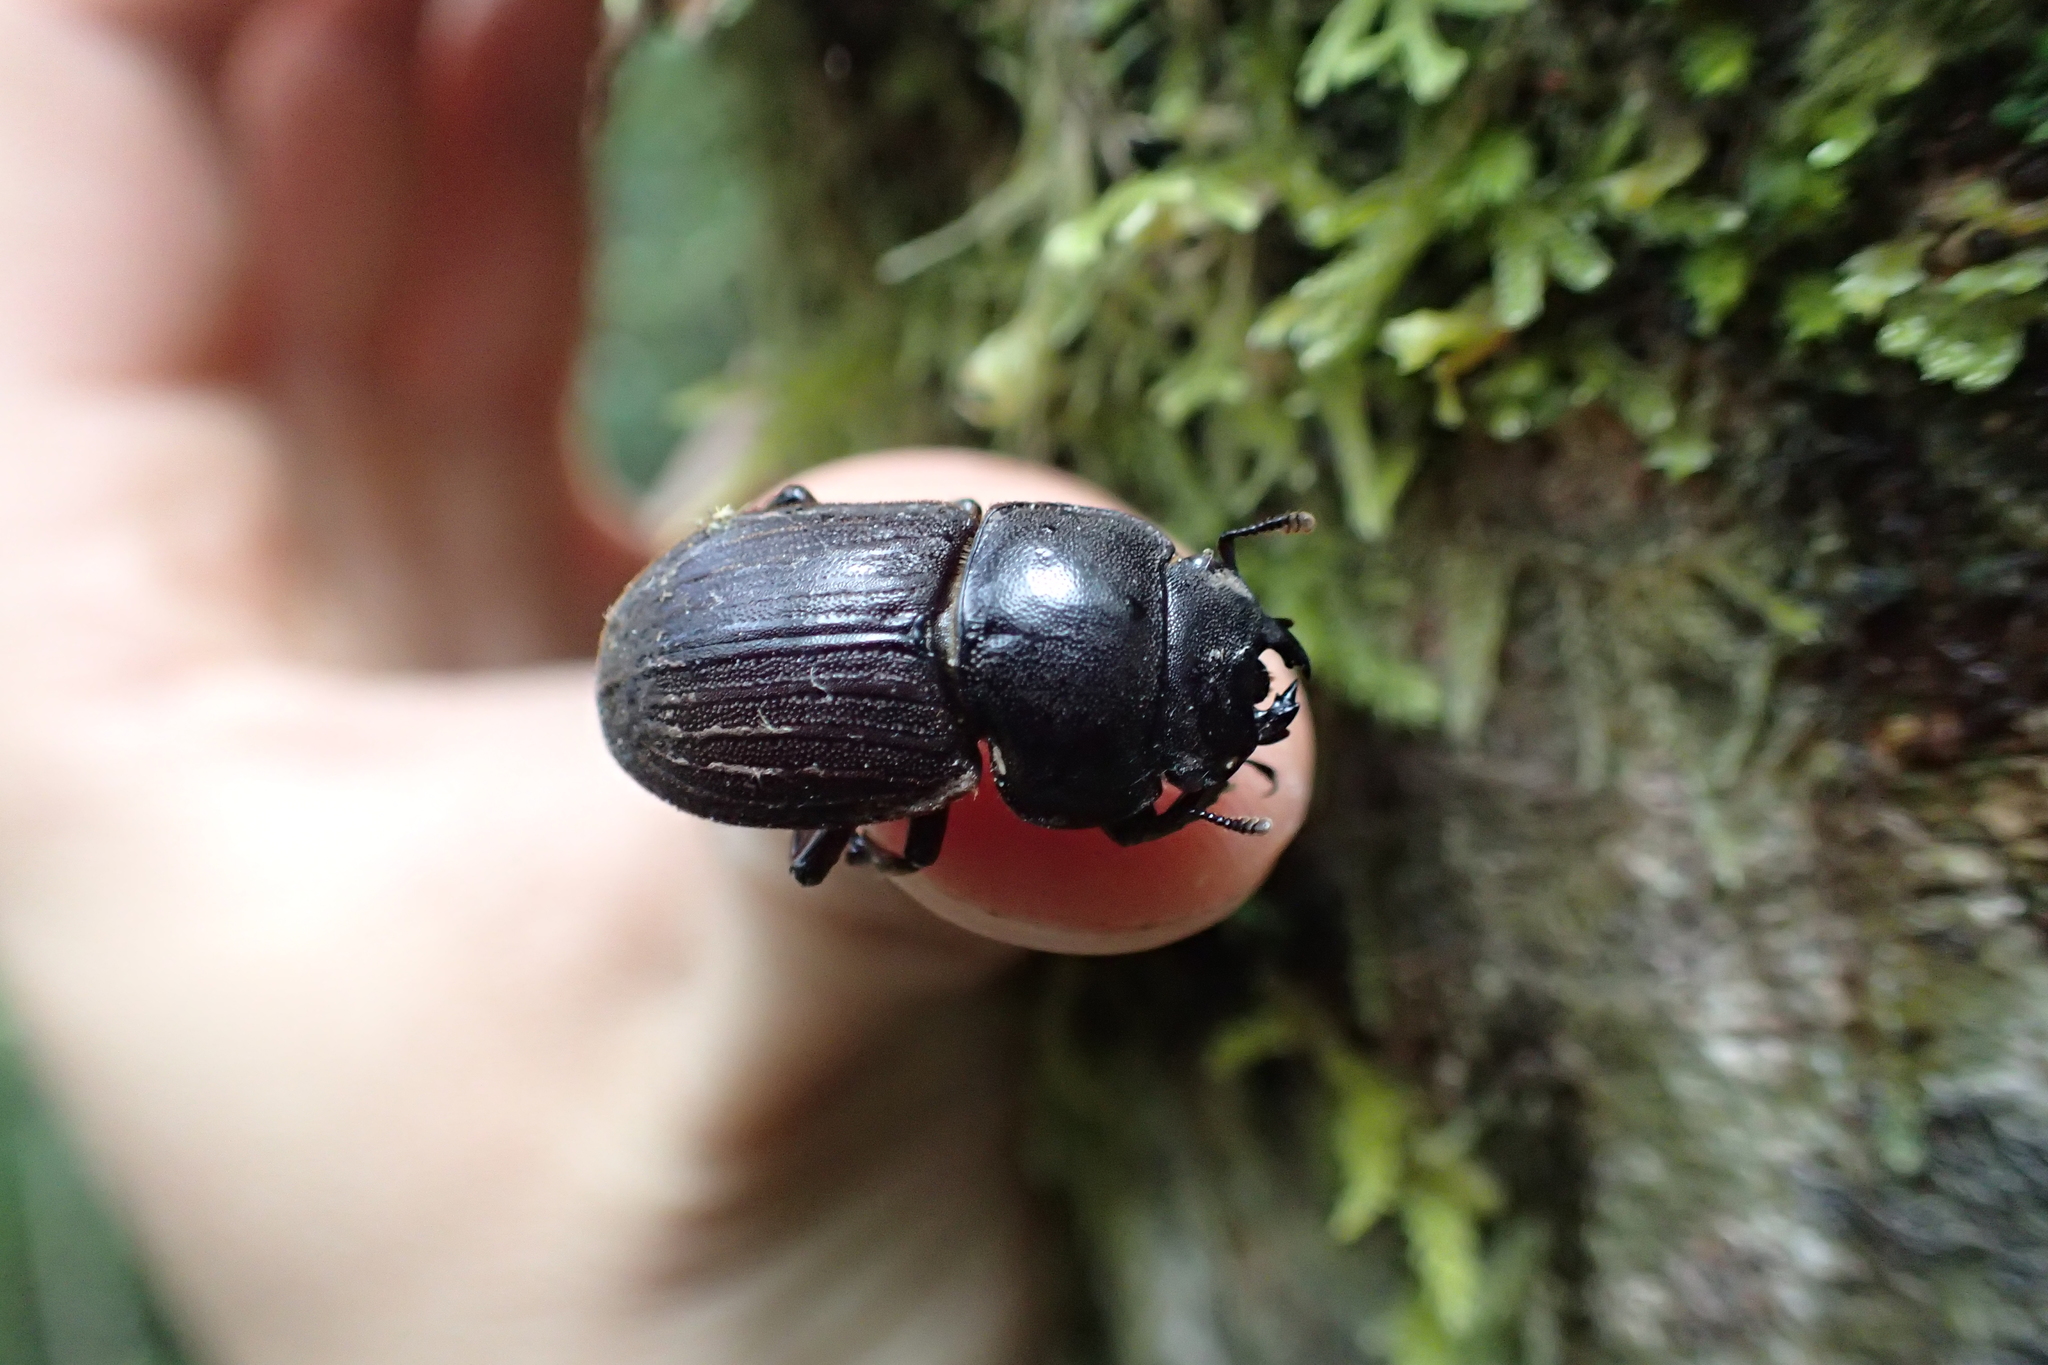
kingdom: Animalia
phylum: Arthropoda
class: Insecta
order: Coleoptera
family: Lucanidae
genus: Geodorcus
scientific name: Geodorcus helmsi
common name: Helm's stag beetle
